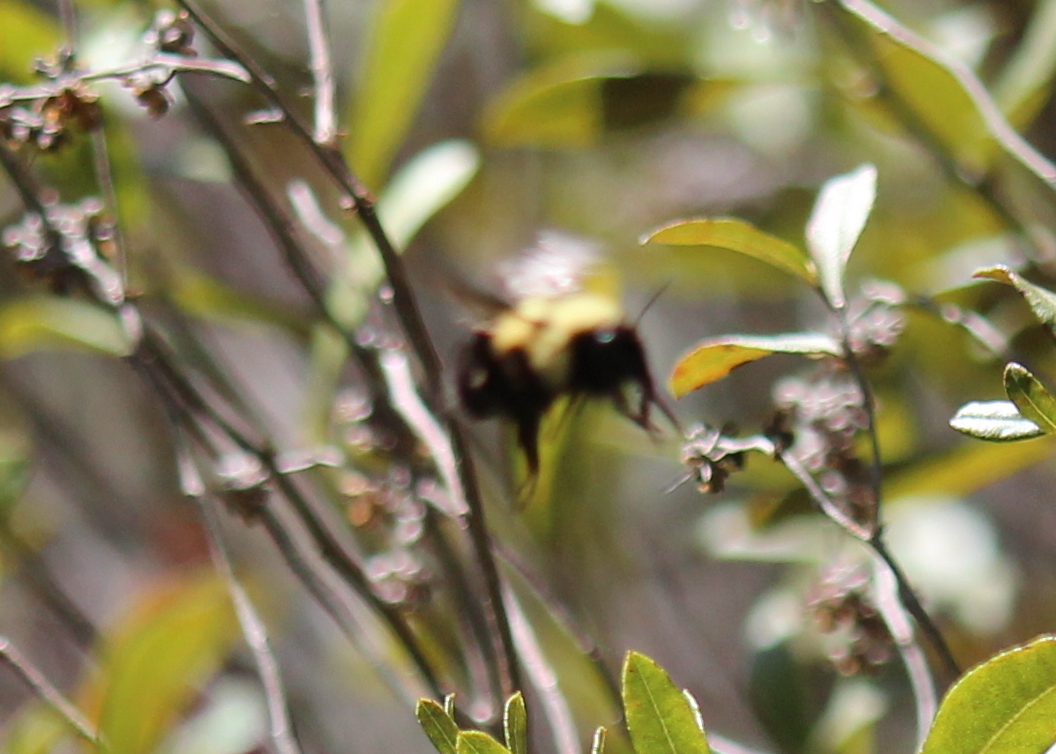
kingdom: Animalia
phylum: Arthropoda
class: Insecta
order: Hymenoptera
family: Apidae
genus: Pyrobombus
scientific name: Pyrobombus
